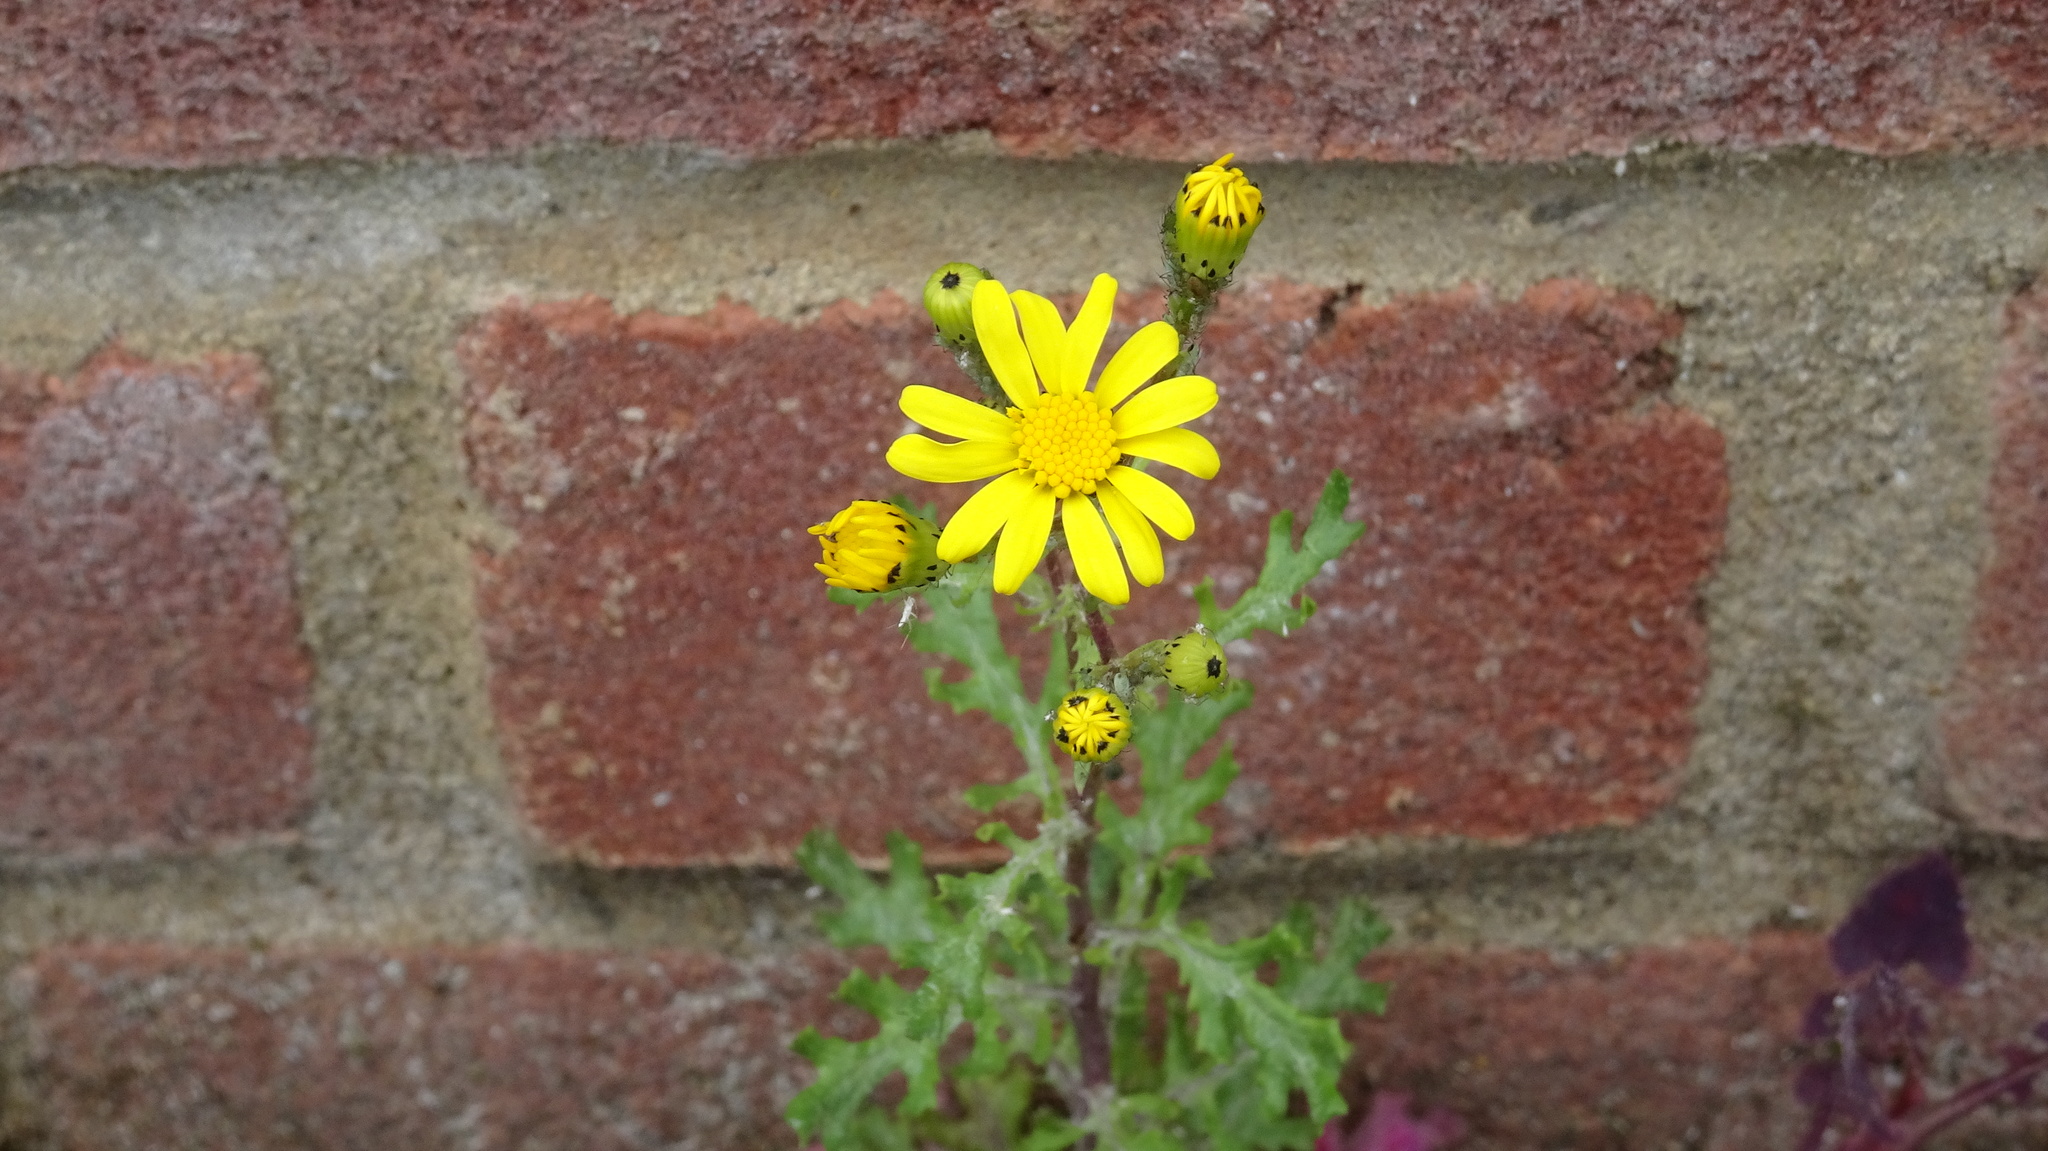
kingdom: Plantae
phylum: Tracheophyta
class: Magnoliopsida
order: Asterales
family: Asteraceae
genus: Senecio
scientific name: Senecio squalidus
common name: Oxford ragwort
